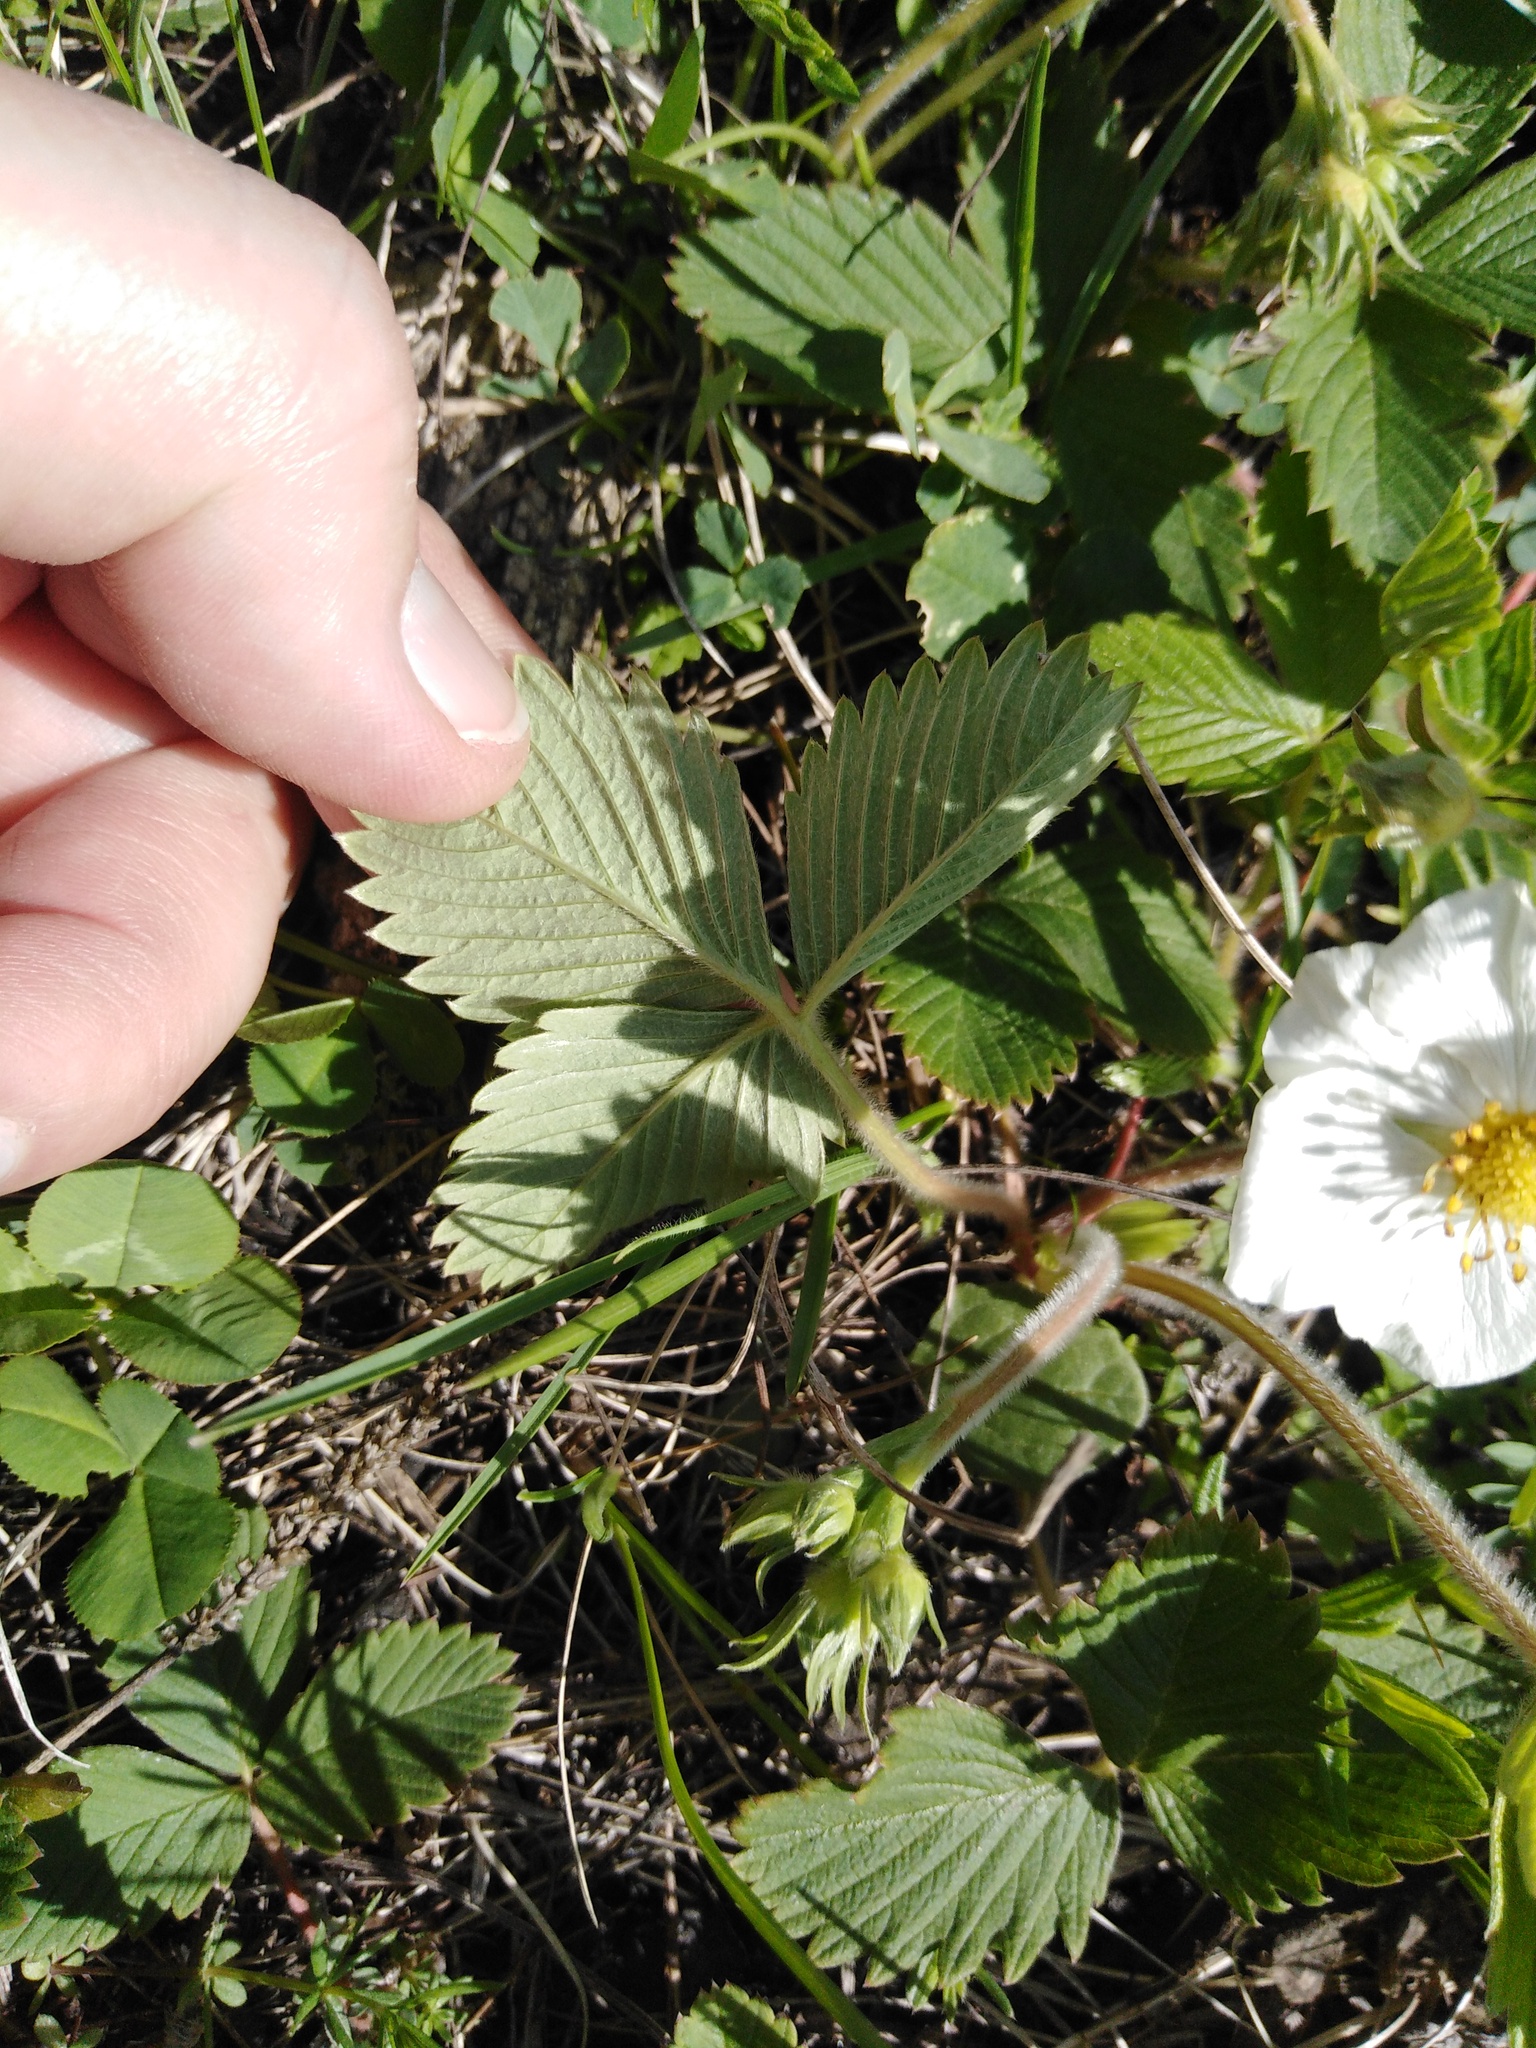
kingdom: Plantae
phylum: Tracheophyta
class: Magnoliopsida
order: Rosales
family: Rosaceae
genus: Fragaria
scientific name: Fragaria viridis
